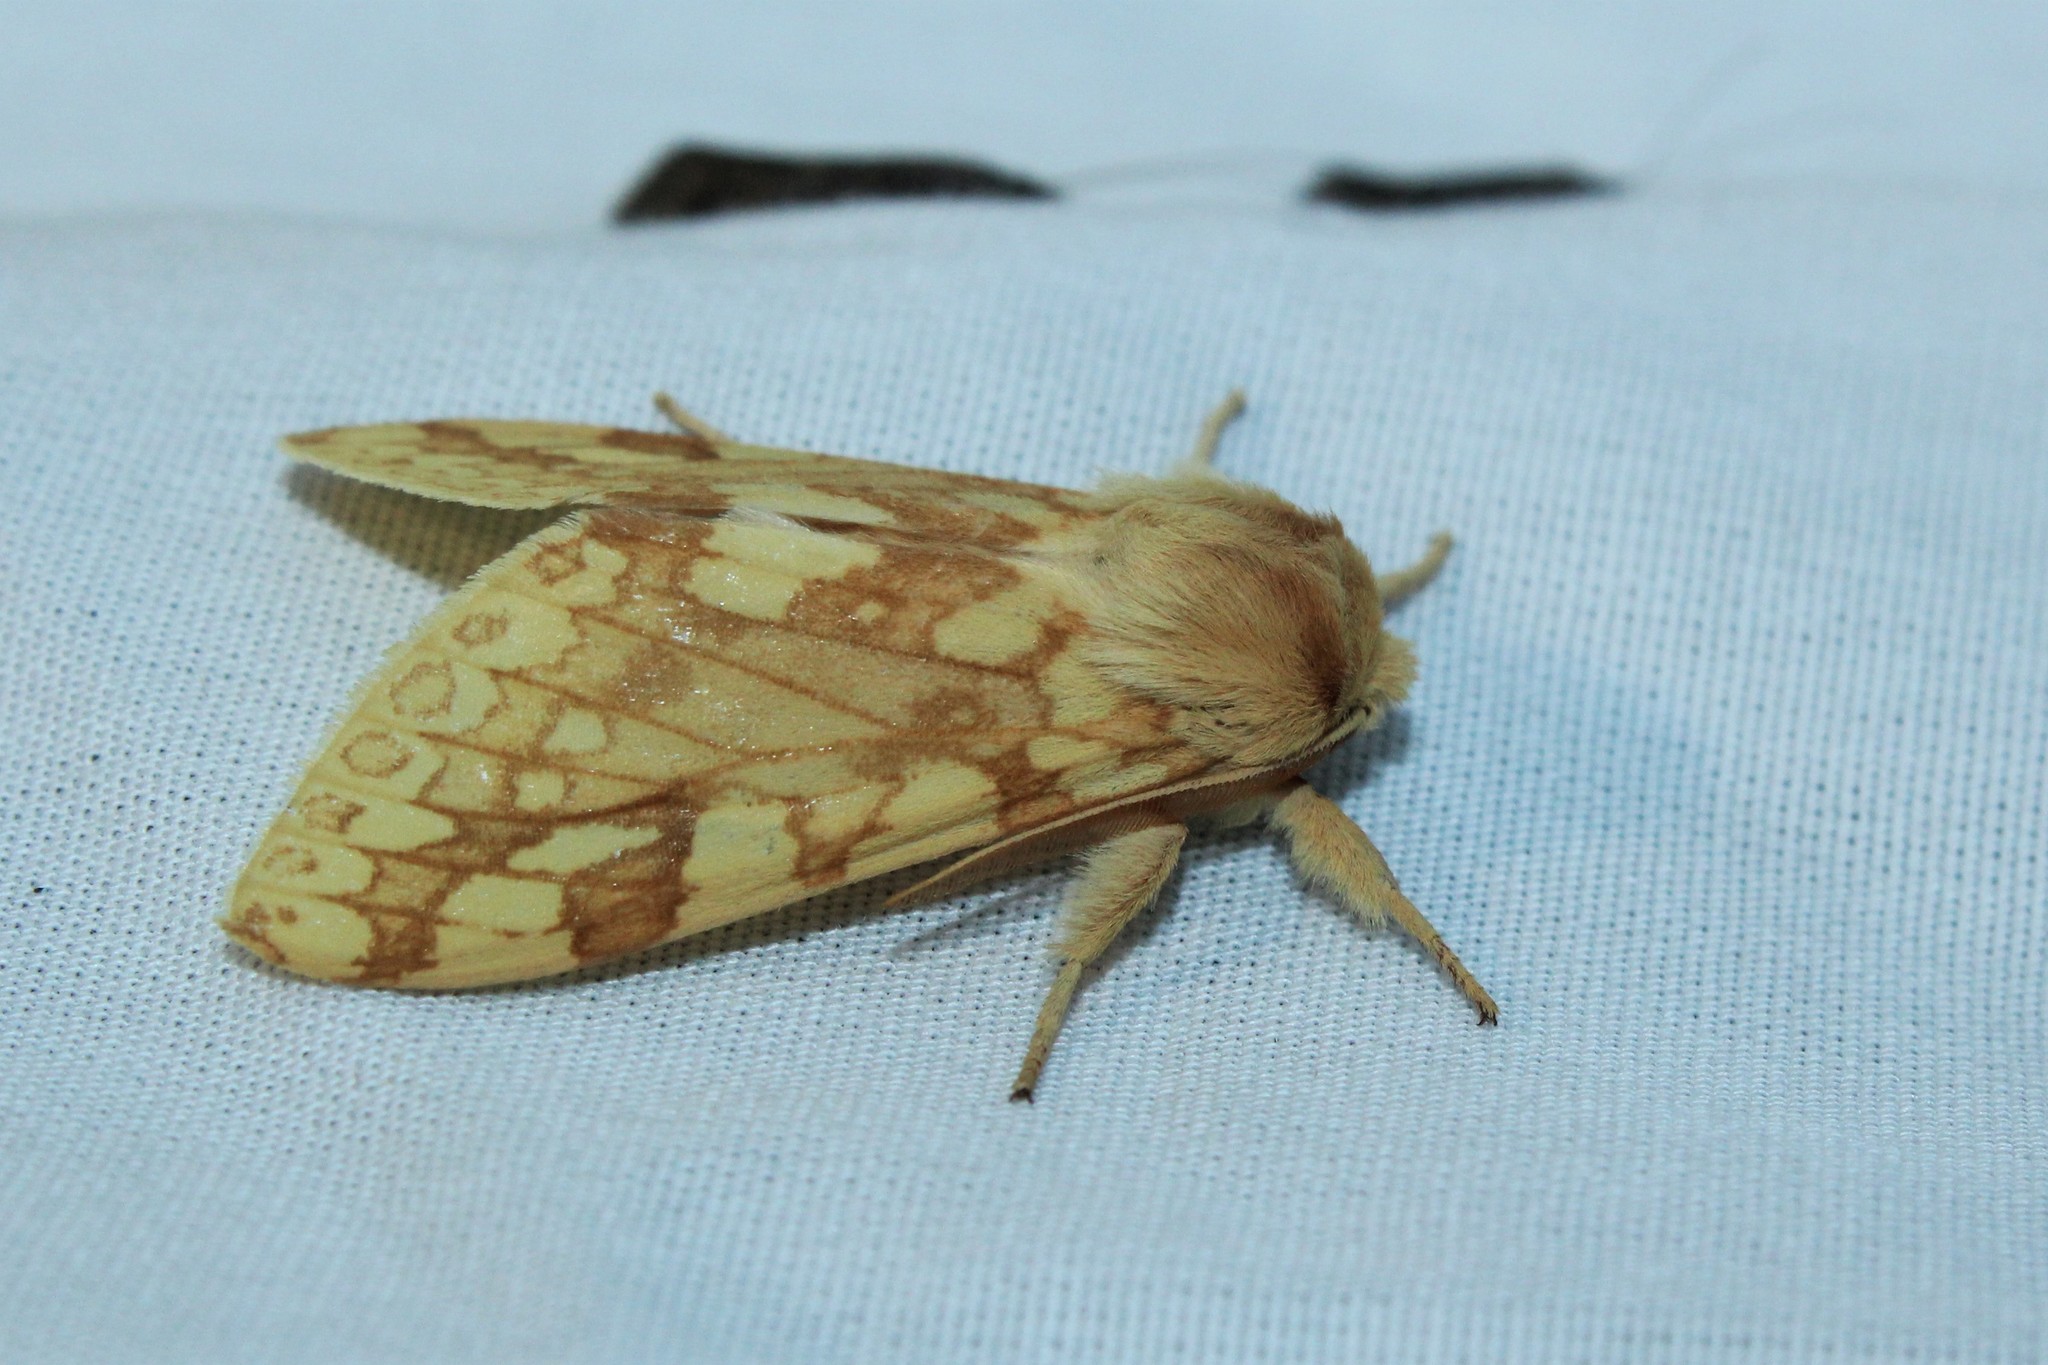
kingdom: Animalia
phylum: Arthropoda
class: Insecta
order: Lepidoptera
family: Erebidae
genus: Lophocampa
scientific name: Lophocampa maculata
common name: Spotted tussock moth
